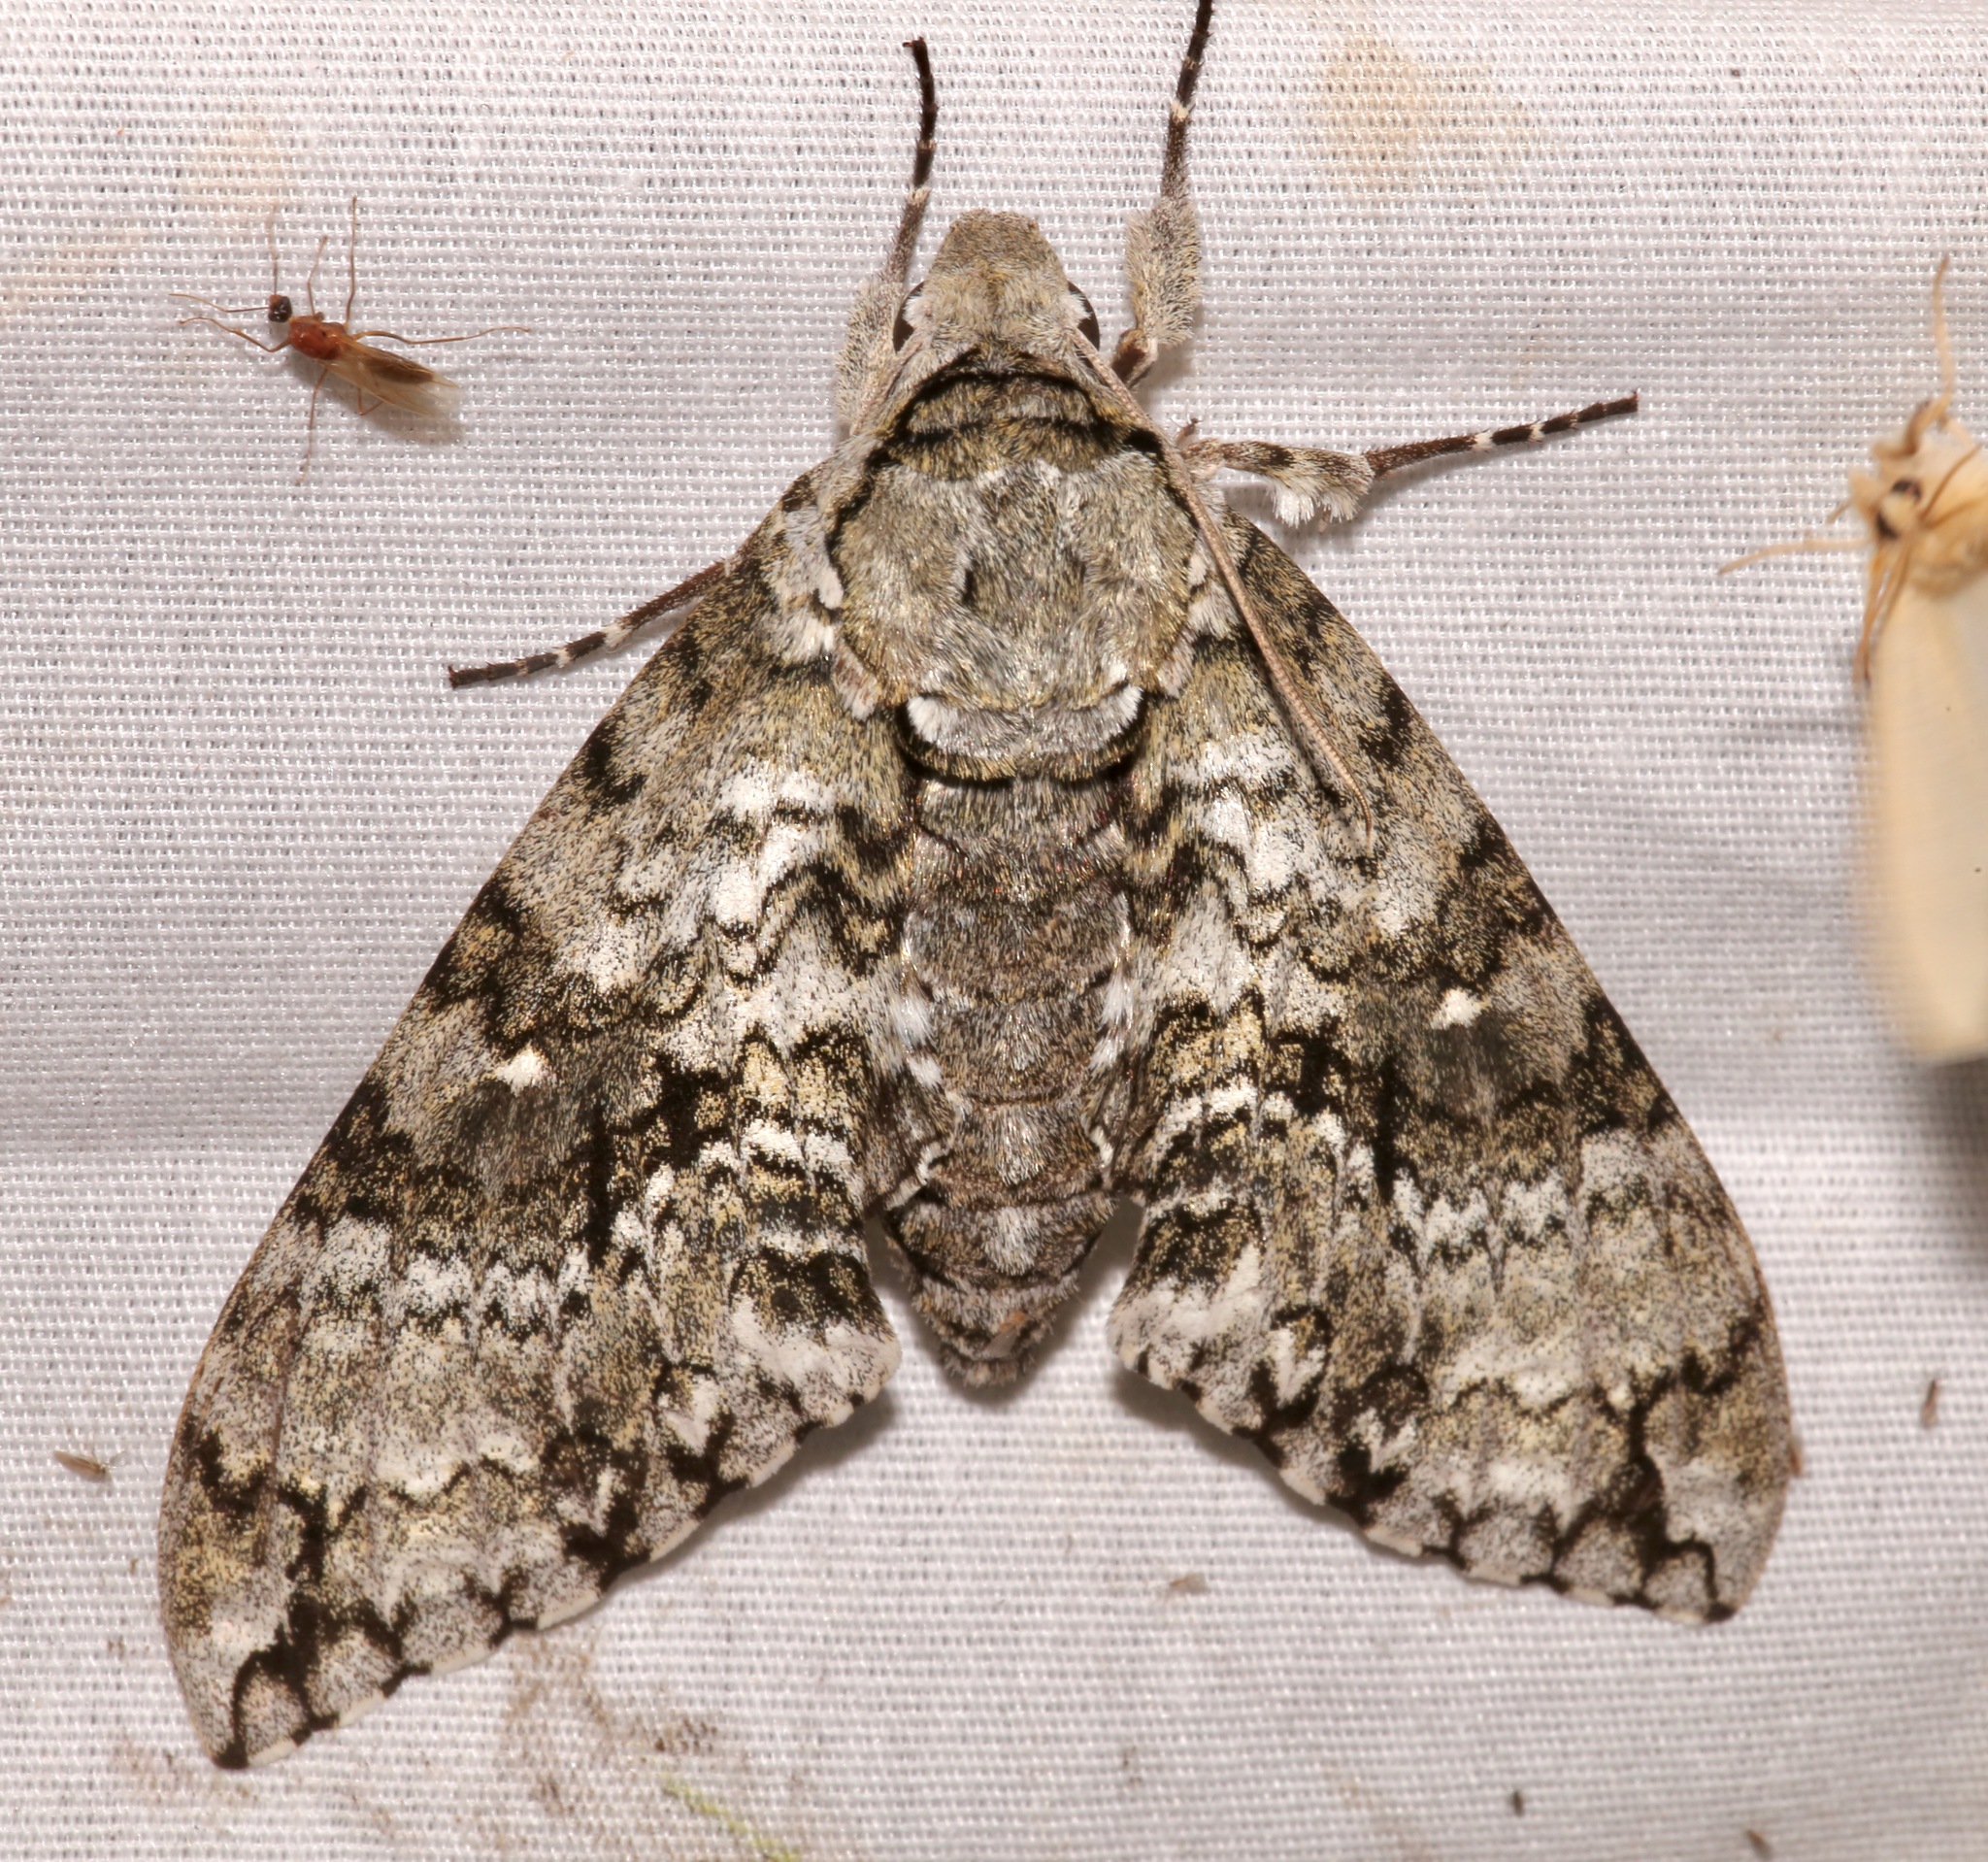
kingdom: Animalia
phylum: Arthropoda
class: Insecta
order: Lepidoptera
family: Sphingidae
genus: Manduca
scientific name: Manduca florestan
